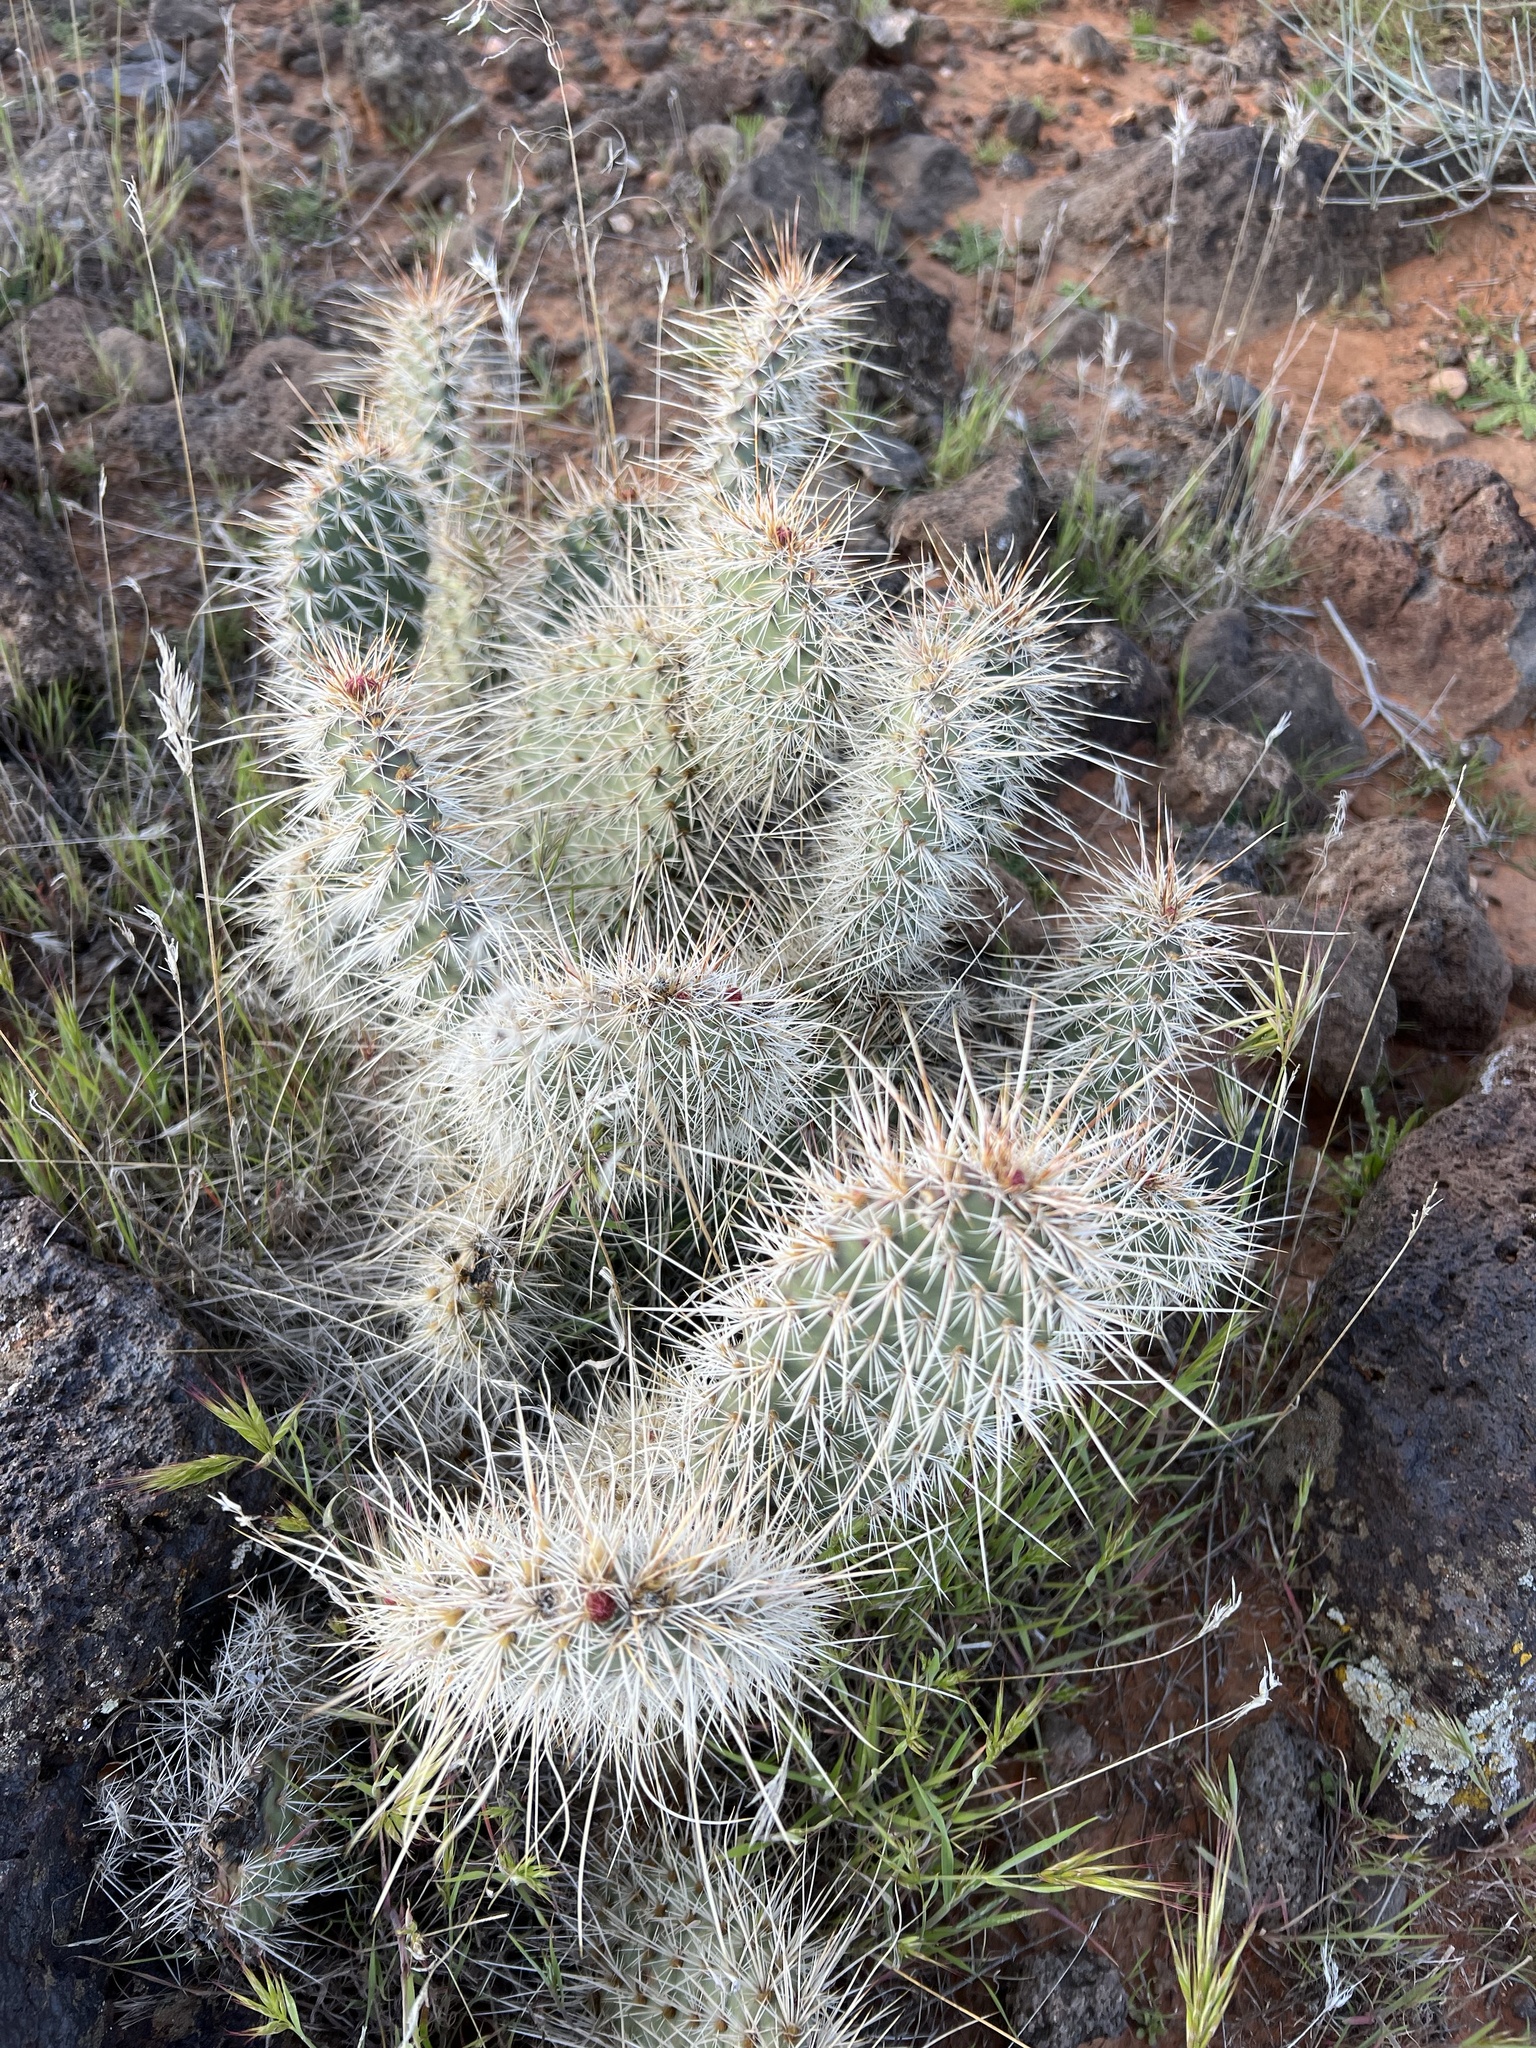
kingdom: Plantae
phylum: Tracheophyta
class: Magnoliopsida
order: Caryophyllales
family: Cactaceae
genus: Opuntia
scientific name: Opuntia polyacantha
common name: Plains prickly-pear
